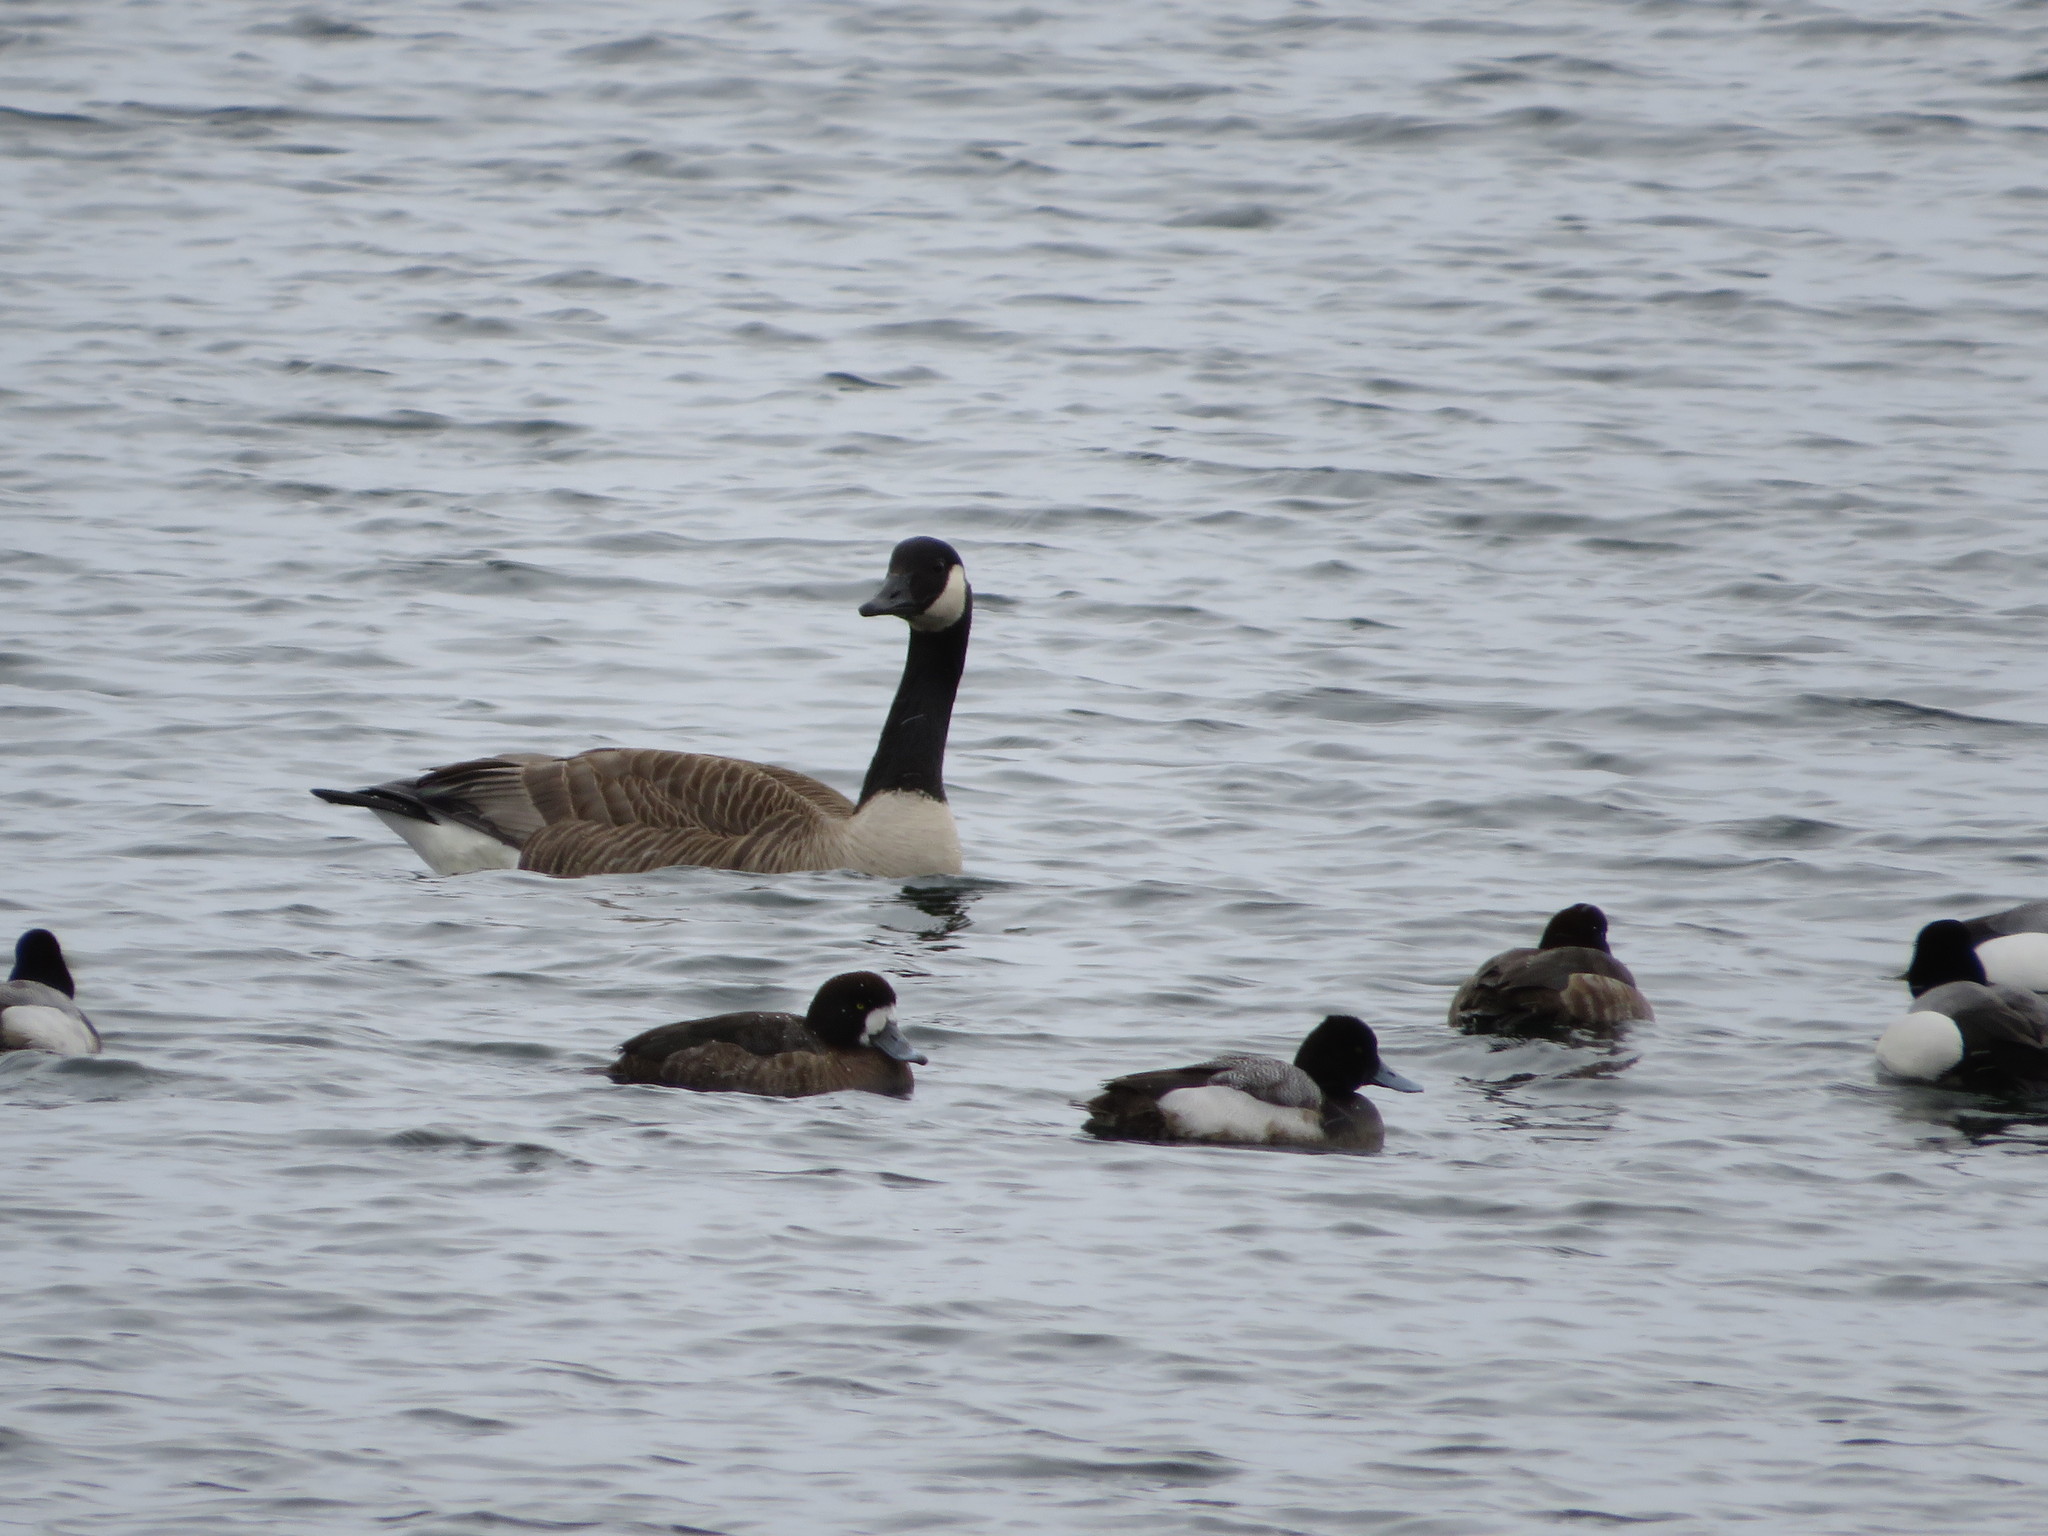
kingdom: Animalia
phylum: Chordata
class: Aves
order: Anseriformes
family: Anatidae
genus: Branta
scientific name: Branta canadensis
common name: Canada goose
